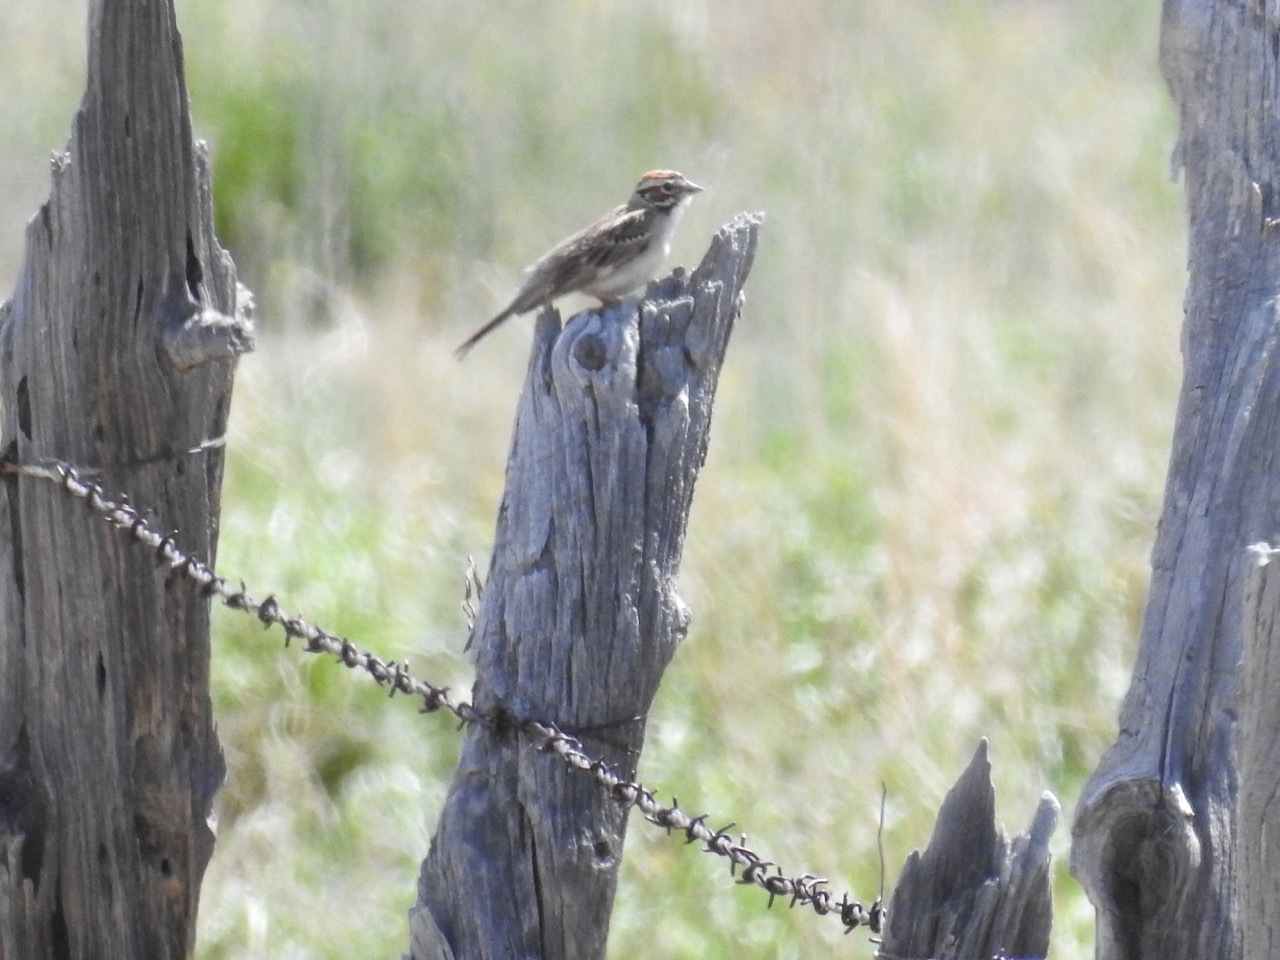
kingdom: Animalia
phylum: Chordata
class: Aves
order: Passeriformes
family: Passerellidae
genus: Chondestes
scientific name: Chondestes grammacus
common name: Lark sparrow
